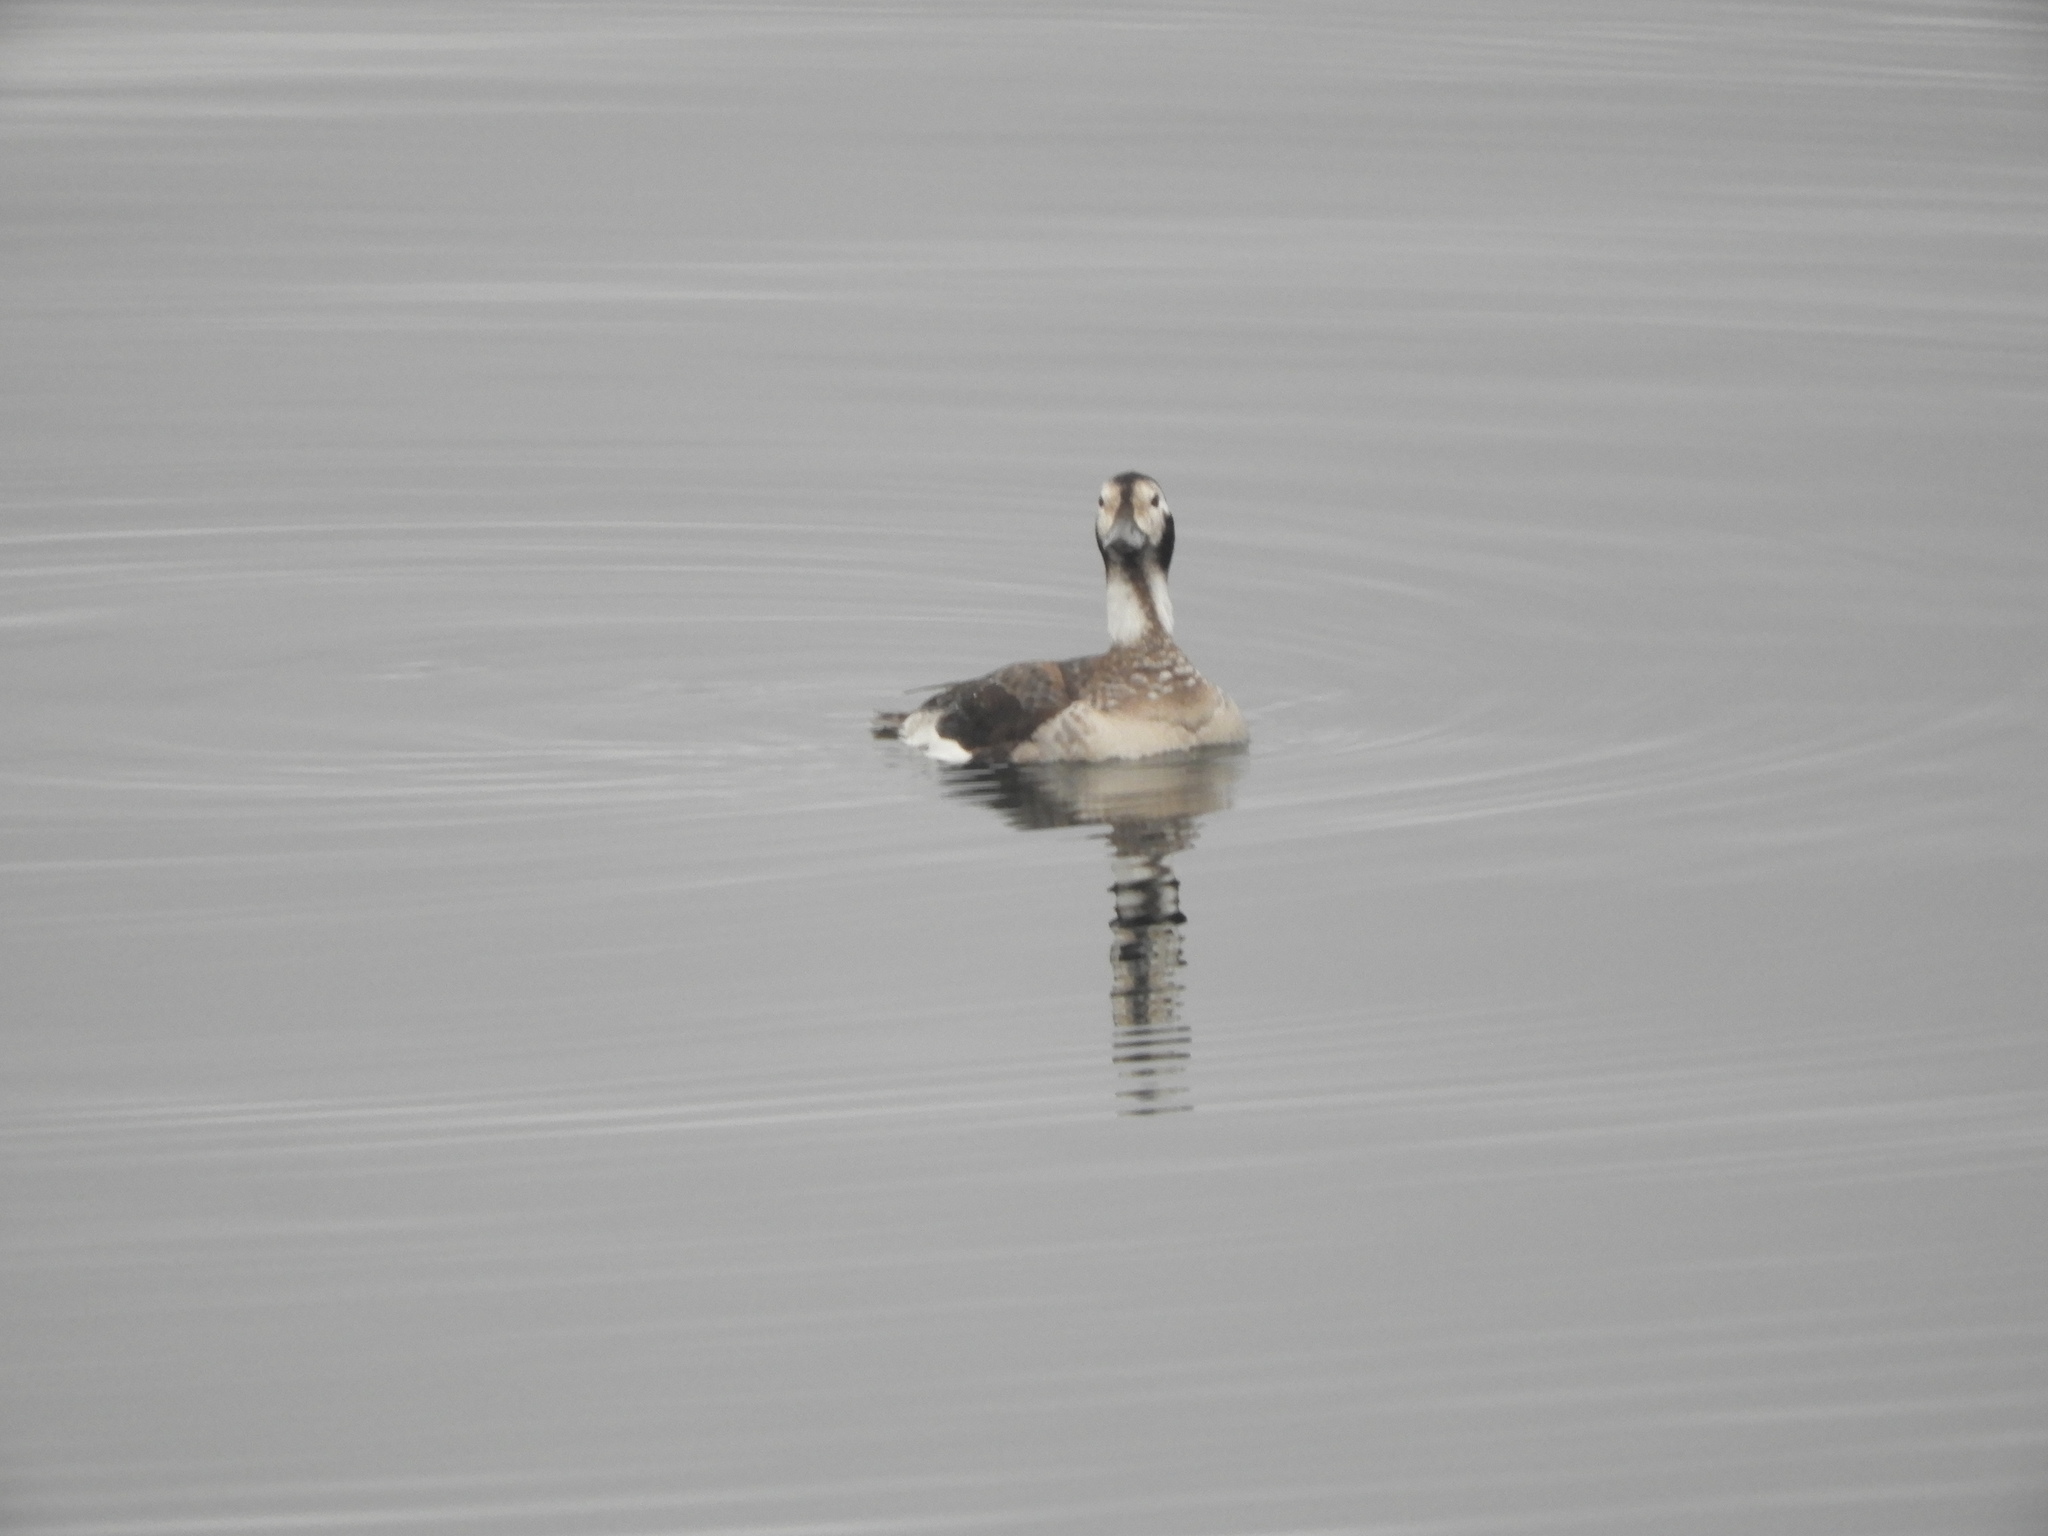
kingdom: Animalia
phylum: Chordata
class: Aves
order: Anseriformes
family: Anatidae
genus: Clangula
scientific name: Clangula hyemalis
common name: Long-tailed duck
